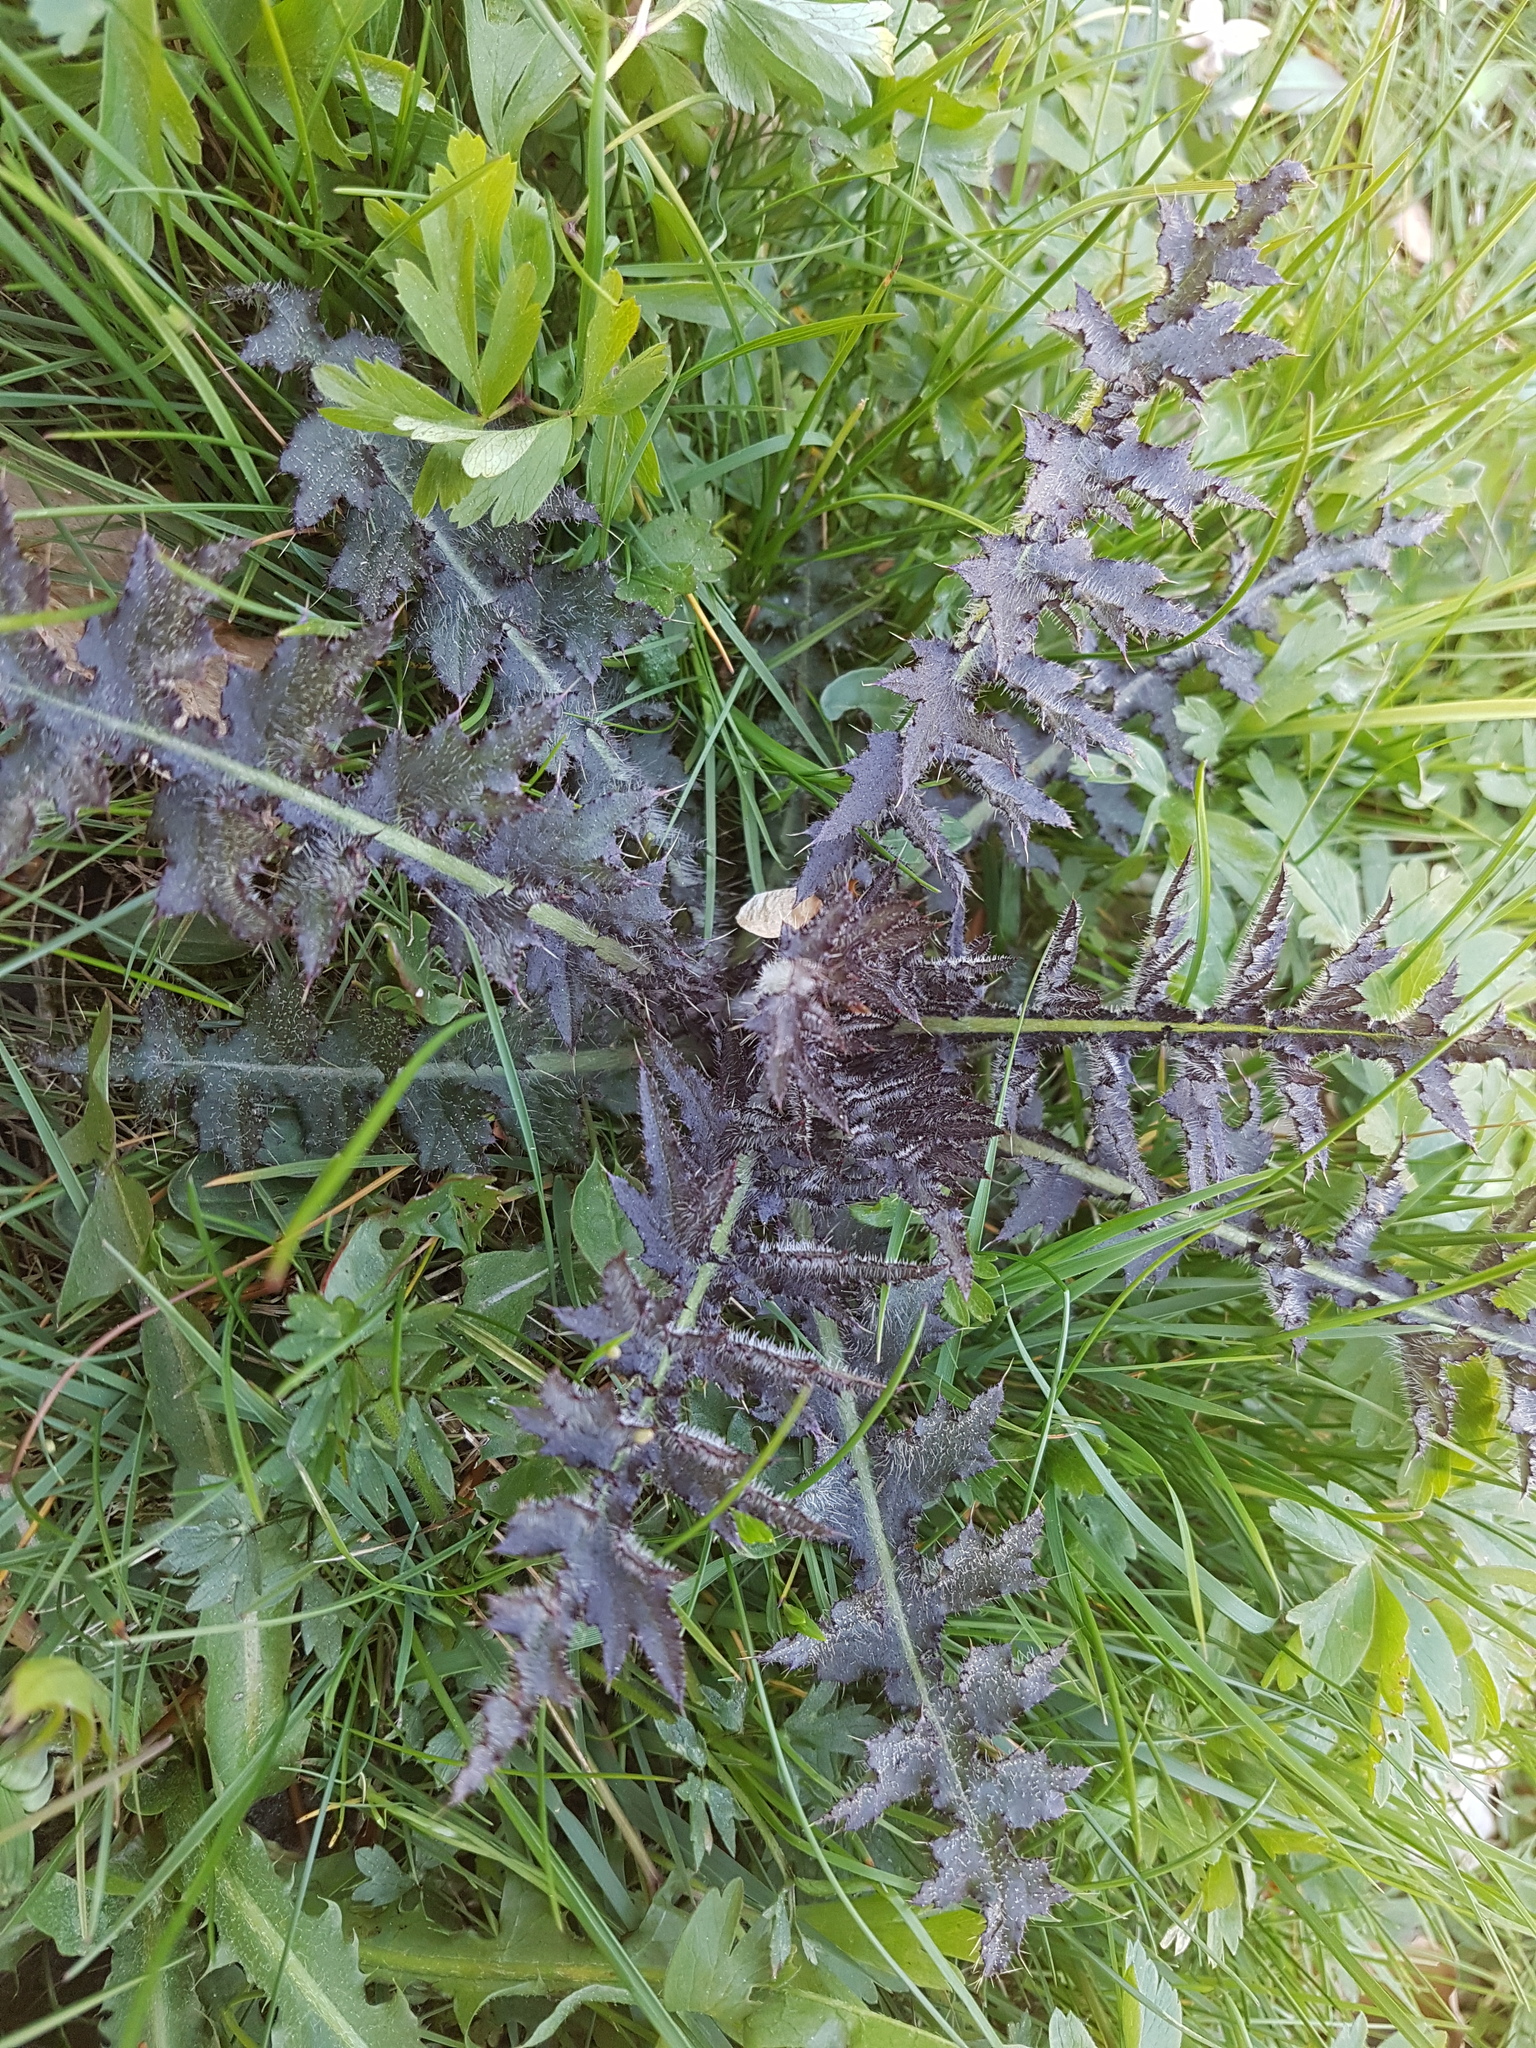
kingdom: Plantae
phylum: Tracheophyta
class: Magnoliopsida
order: Asterales
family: Asteraceae
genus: Cirsium
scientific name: Cirsium palustre
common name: Marsh thistle
